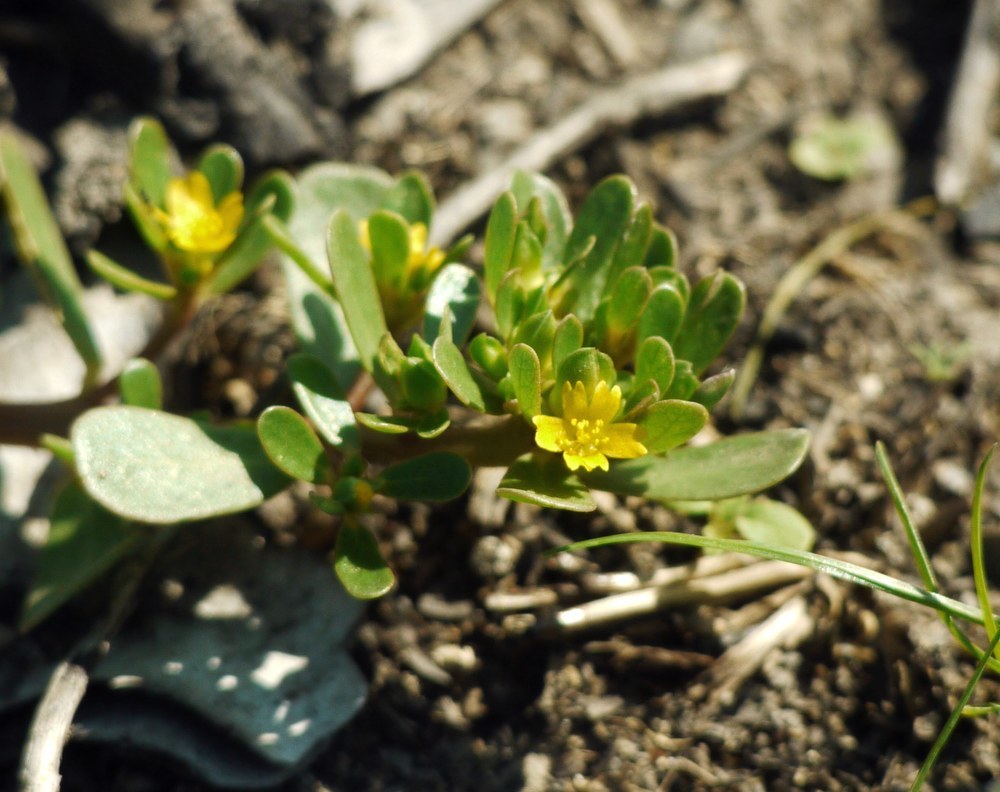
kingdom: Plantae
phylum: Tracheophyta
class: Magnoliopsida
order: Caryophyllales
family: Portulacaceae
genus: Portulaca
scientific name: Portulaca oleracea
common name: Common purslane
